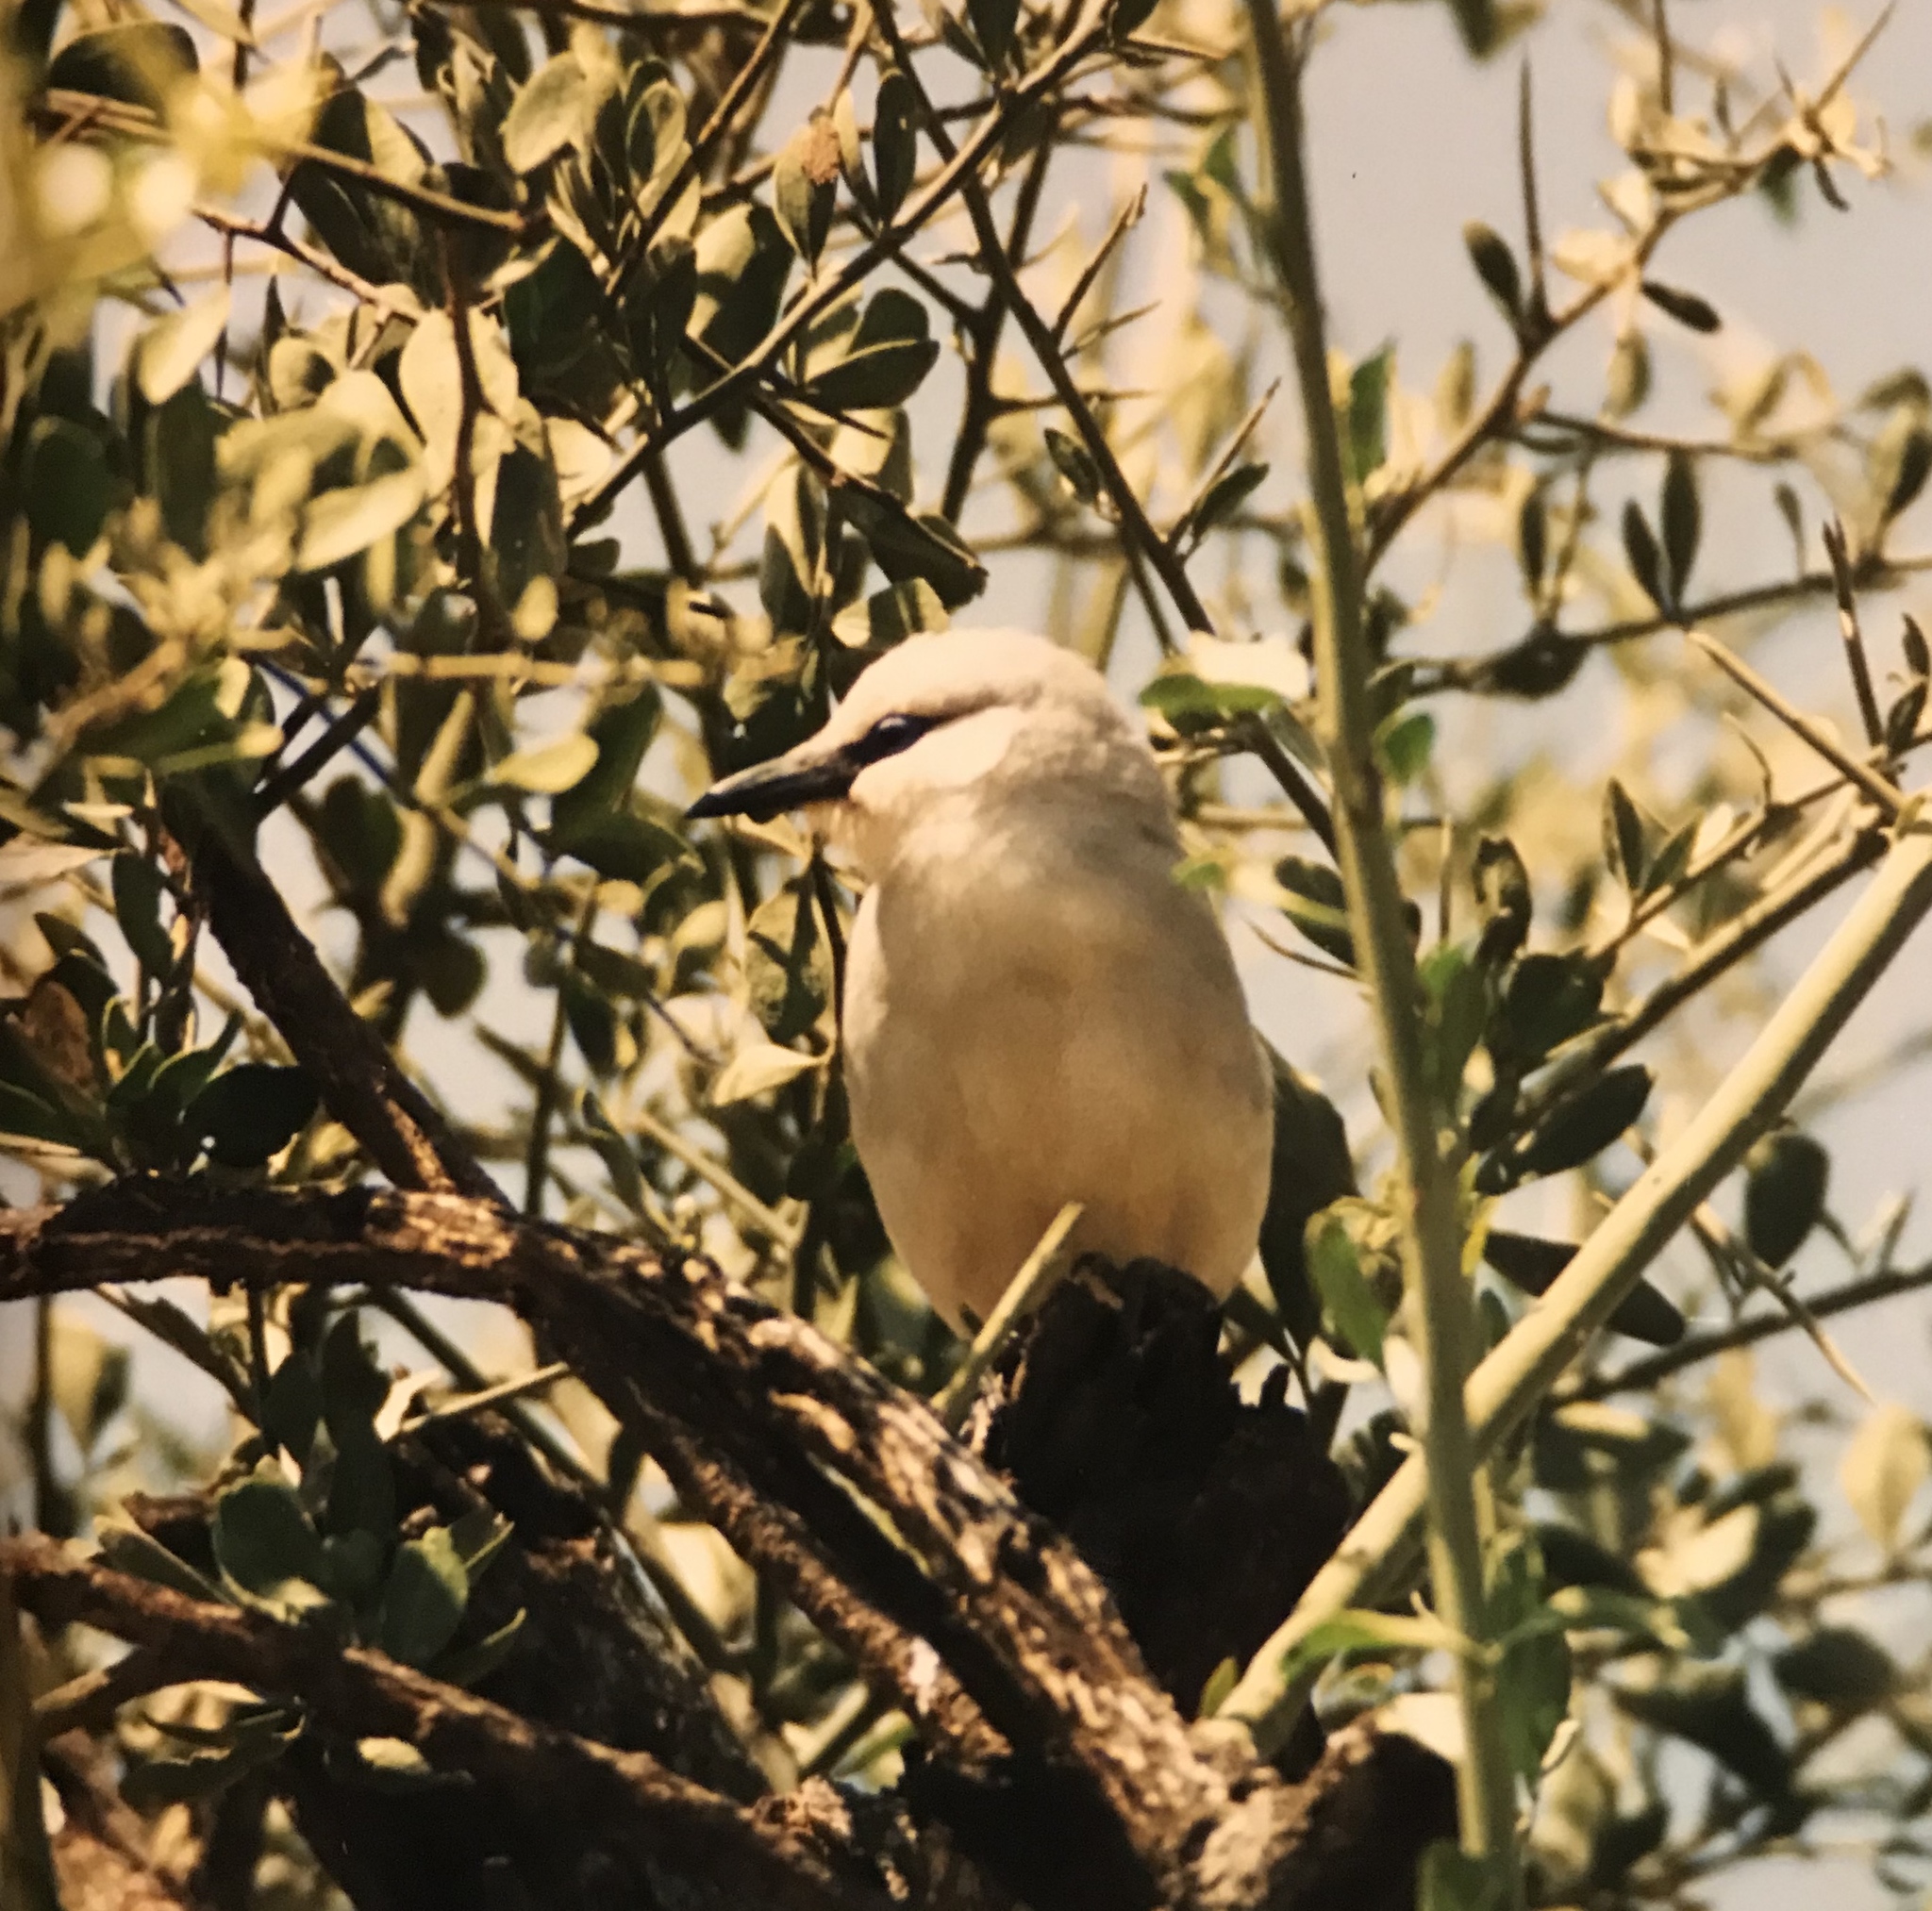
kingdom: Animalia
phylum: Chordata
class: Aves
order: Passeriformes
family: Corvidae
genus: Zavattariornis
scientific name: Zavattariornis stresemanni
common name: Stresemann's bush crow
